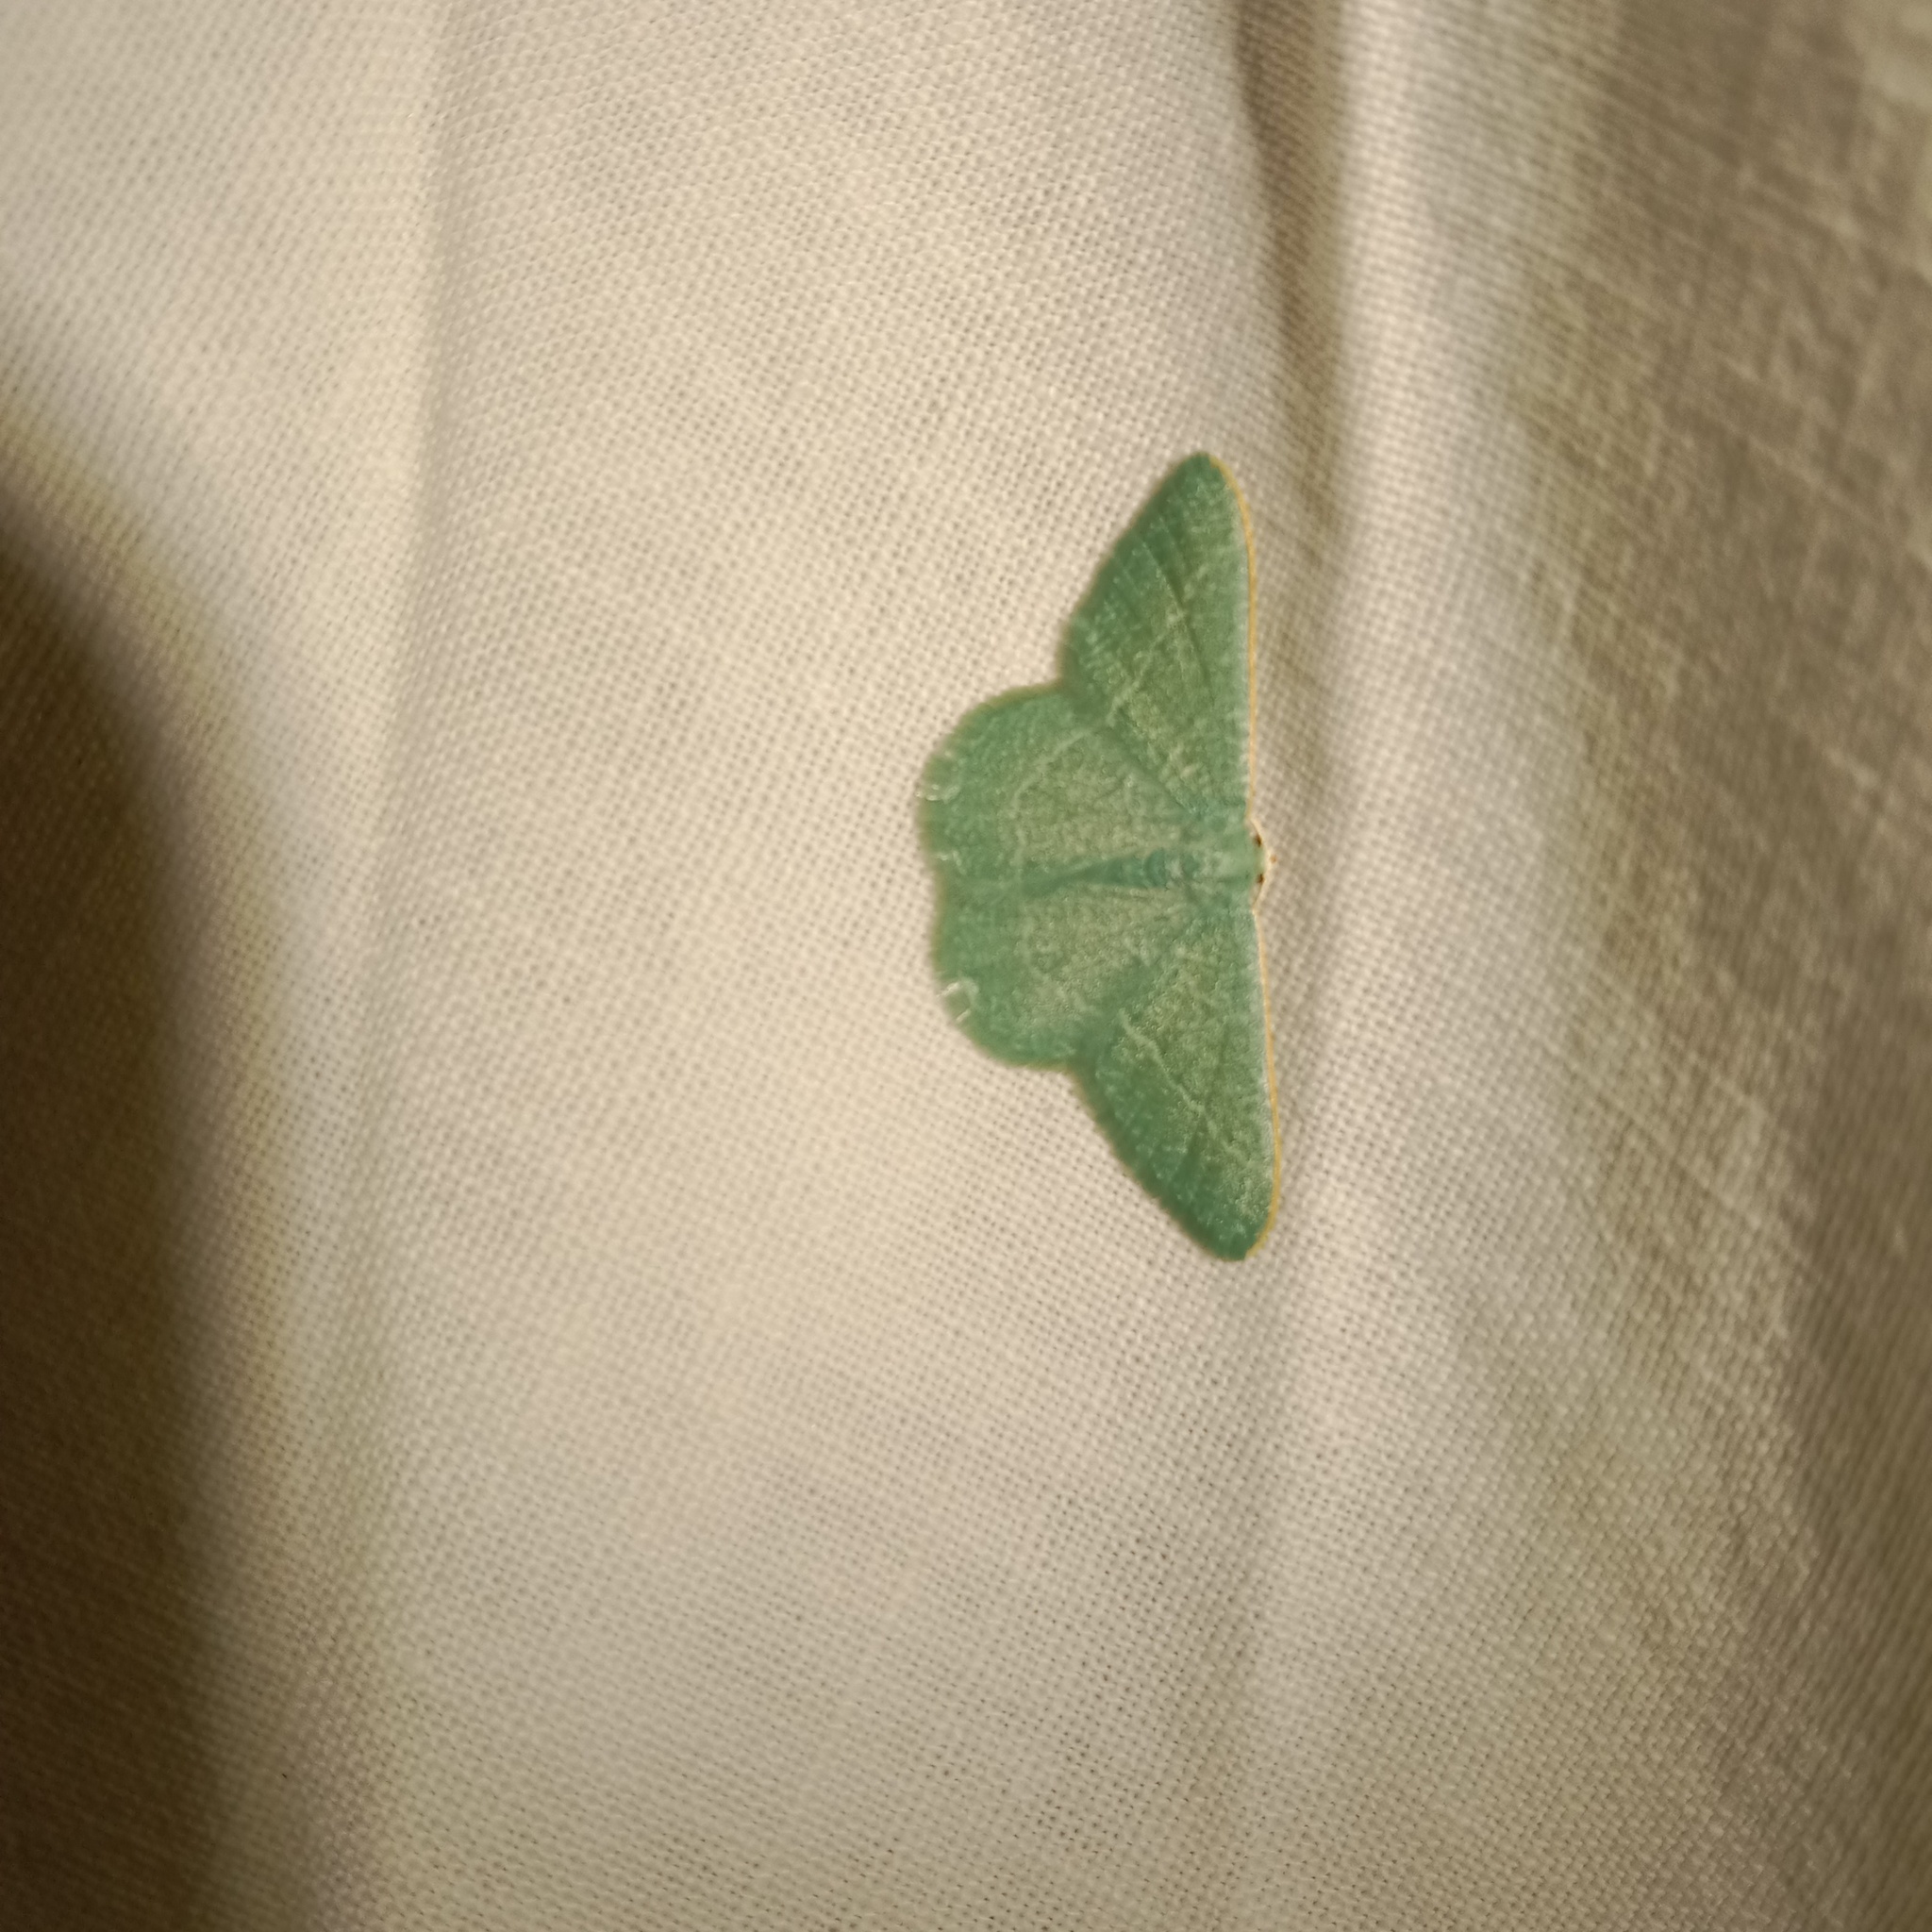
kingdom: Animalia
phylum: Arthropoda
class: Insecta
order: Lepidoptera
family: Geometridae
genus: Chlorissa
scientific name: Chlorissa etruscaria
